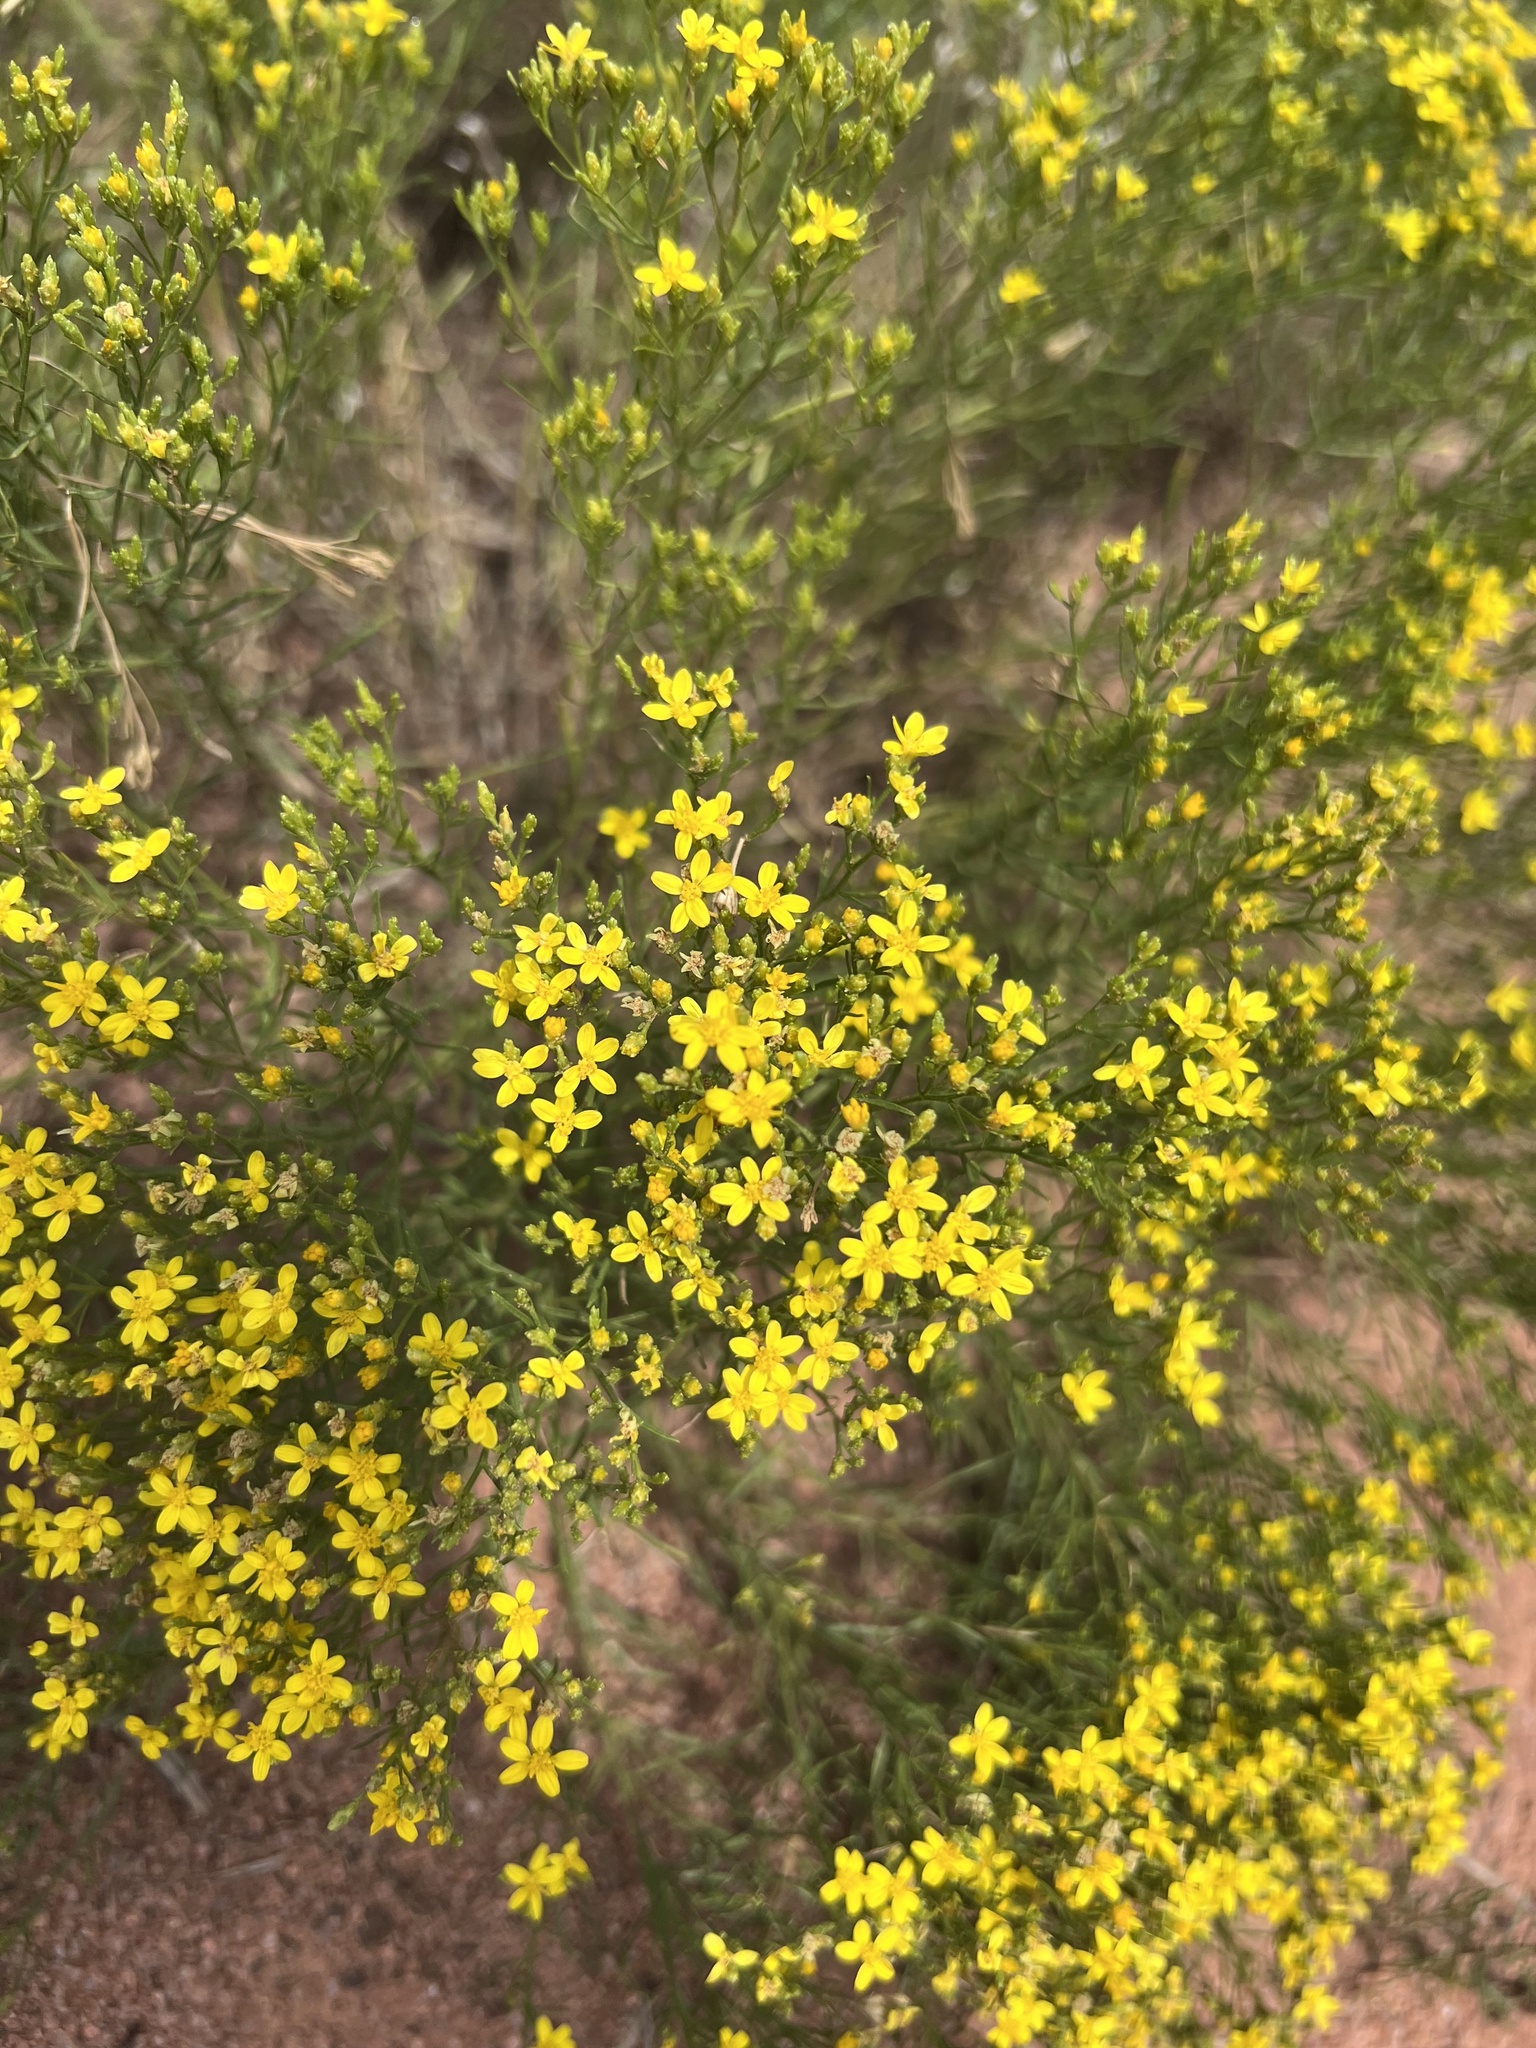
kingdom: Plantae
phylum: Tracheophyta
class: Magnoliopsida
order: Asterales
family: Asteraceae
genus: Gutierrezia
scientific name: Gutierrezia sarothrae
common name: Broom snakeweed
